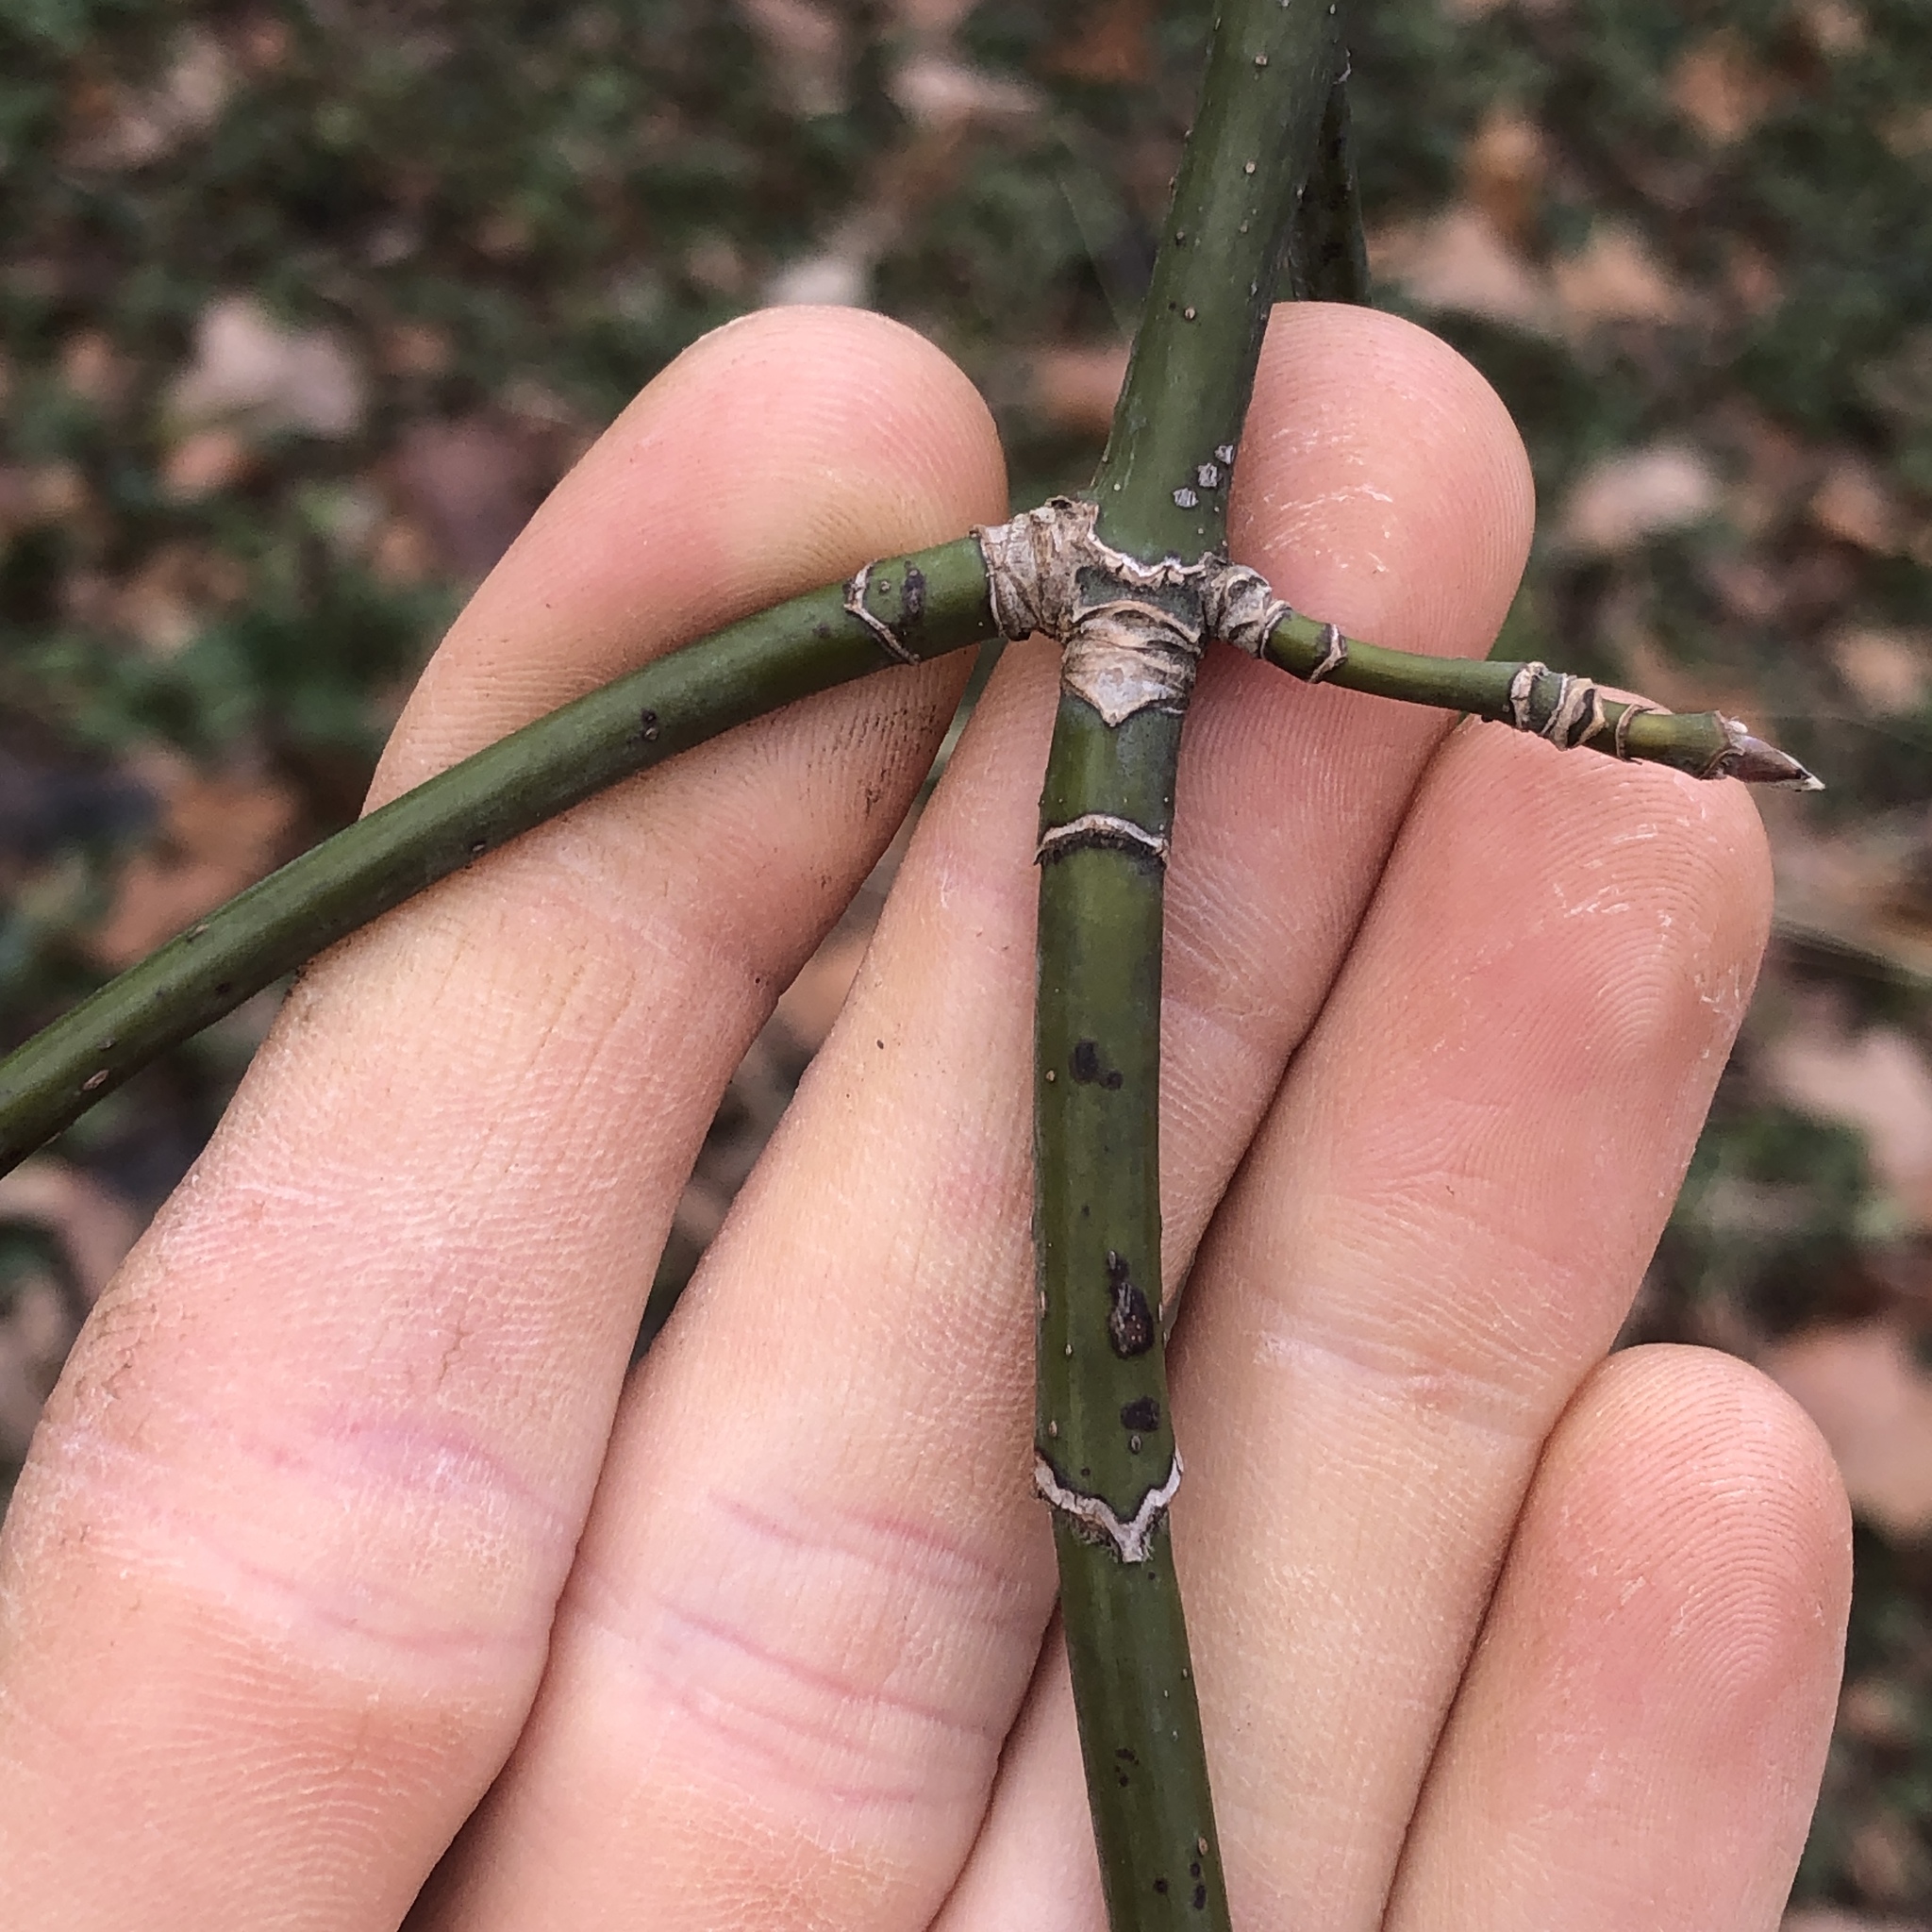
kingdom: Plantae
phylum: Tracheophyta
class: Magnoliopsida
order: Sapindales
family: Sapindaceae
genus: Acer
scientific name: Acer negundo
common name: Ashleaf maple
